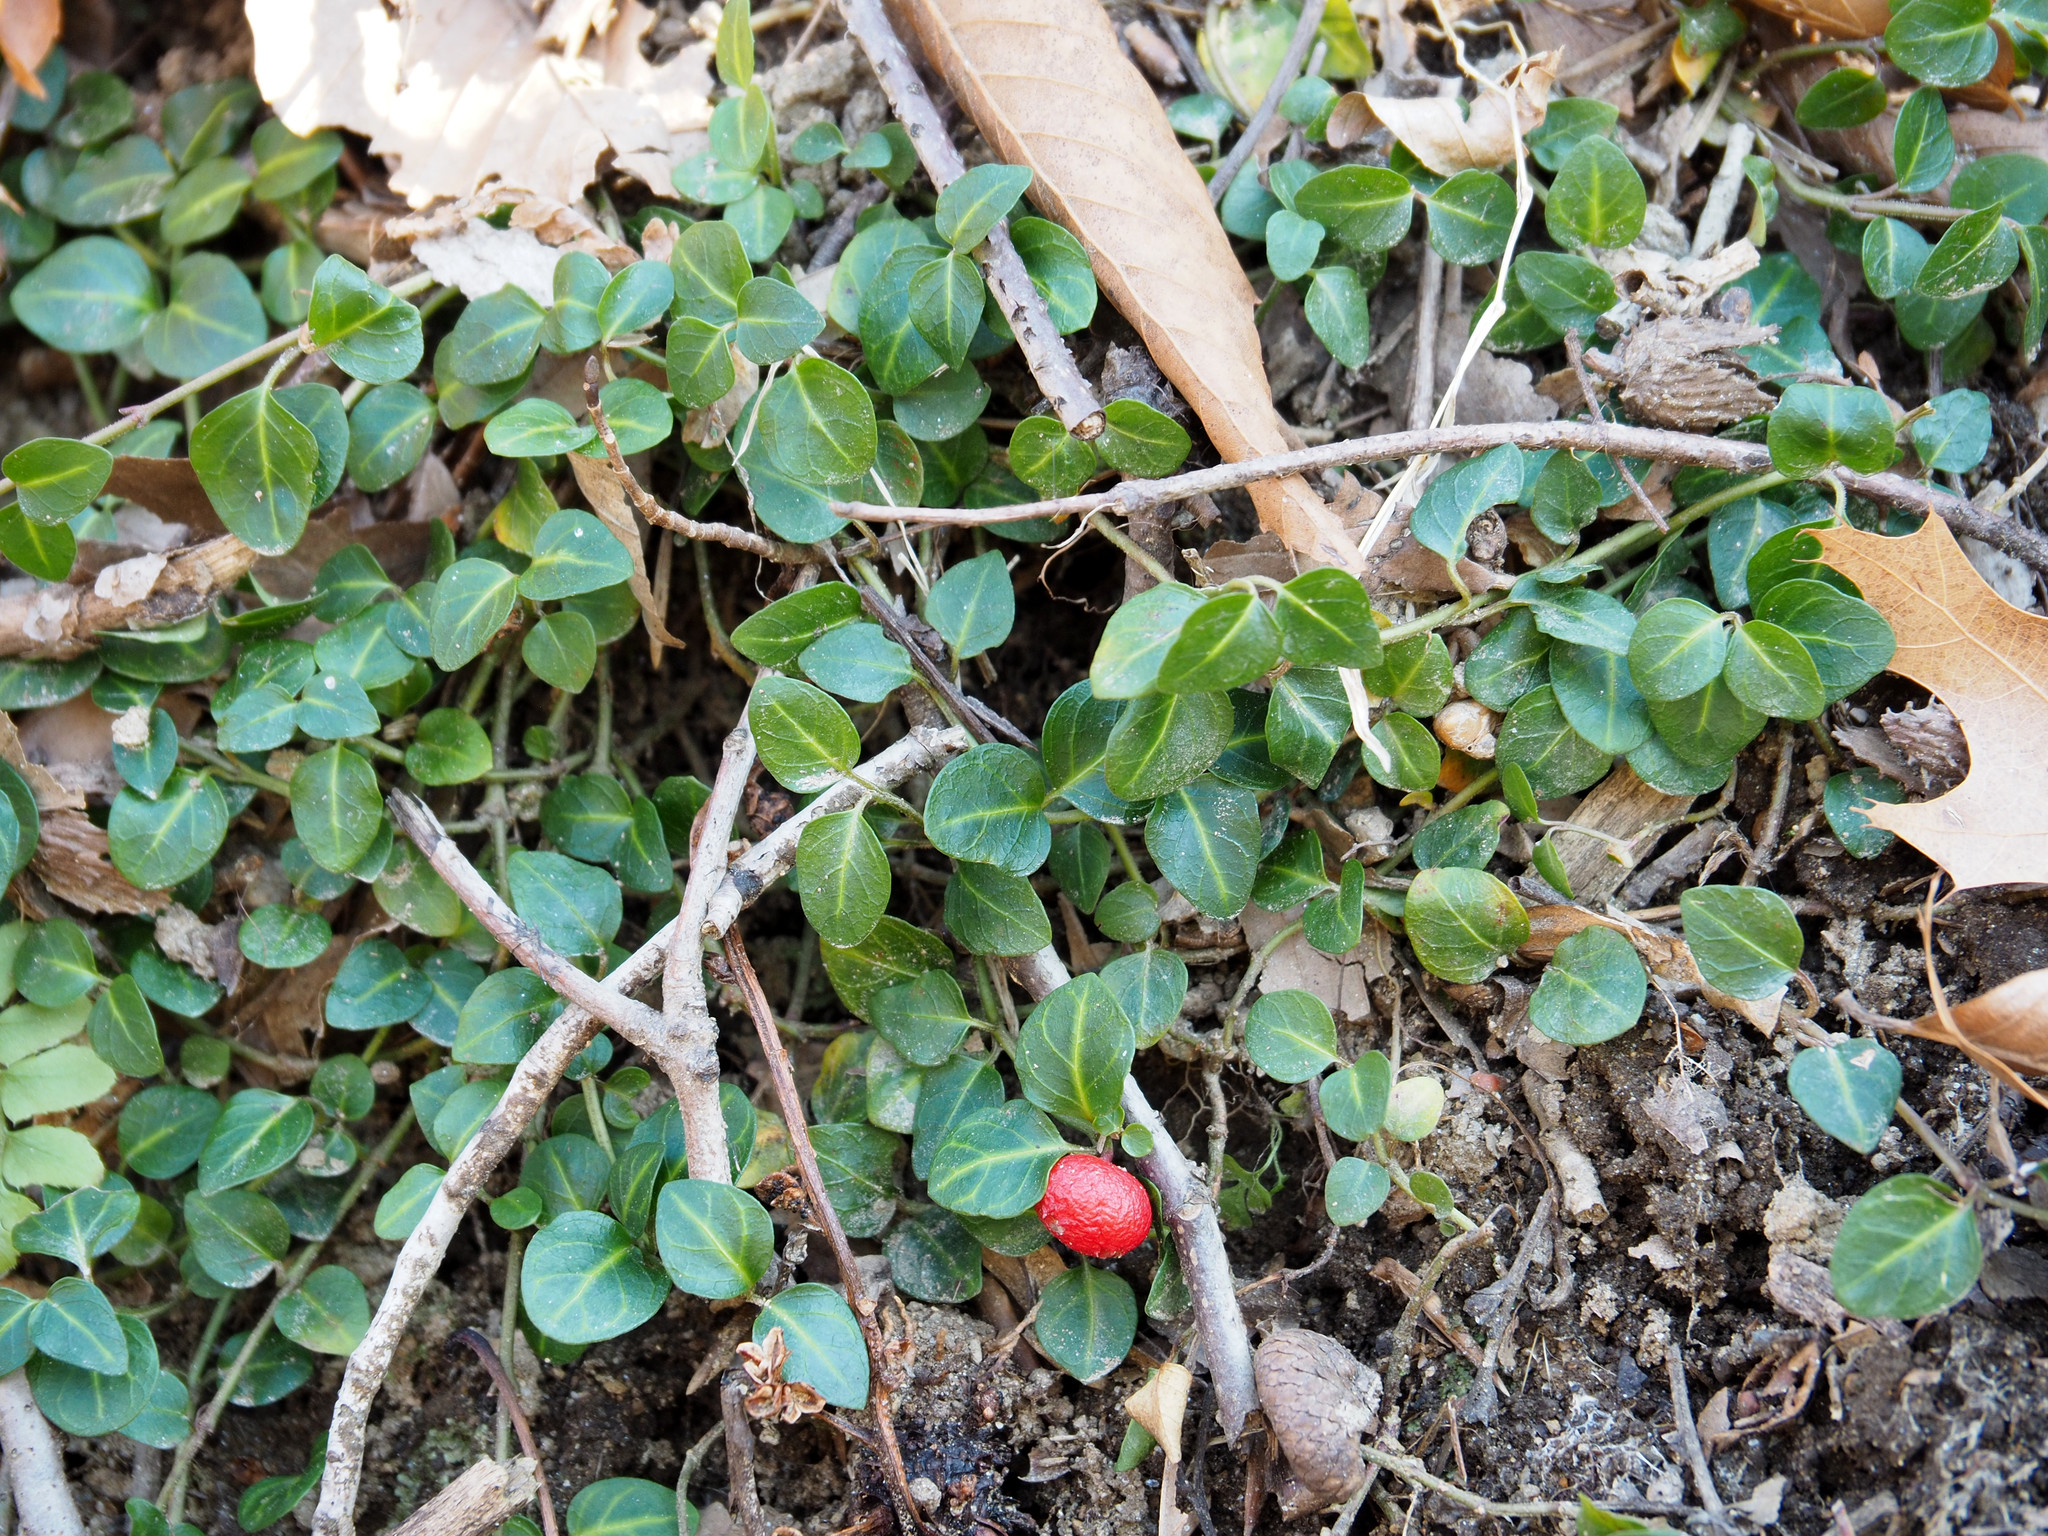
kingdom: Plantae
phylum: Tracheophyta
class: Magnoliopsida
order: Gentianales
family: Rubiaceae
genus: Mitchella
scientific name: Mitchella repens
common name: Partridge-berry
